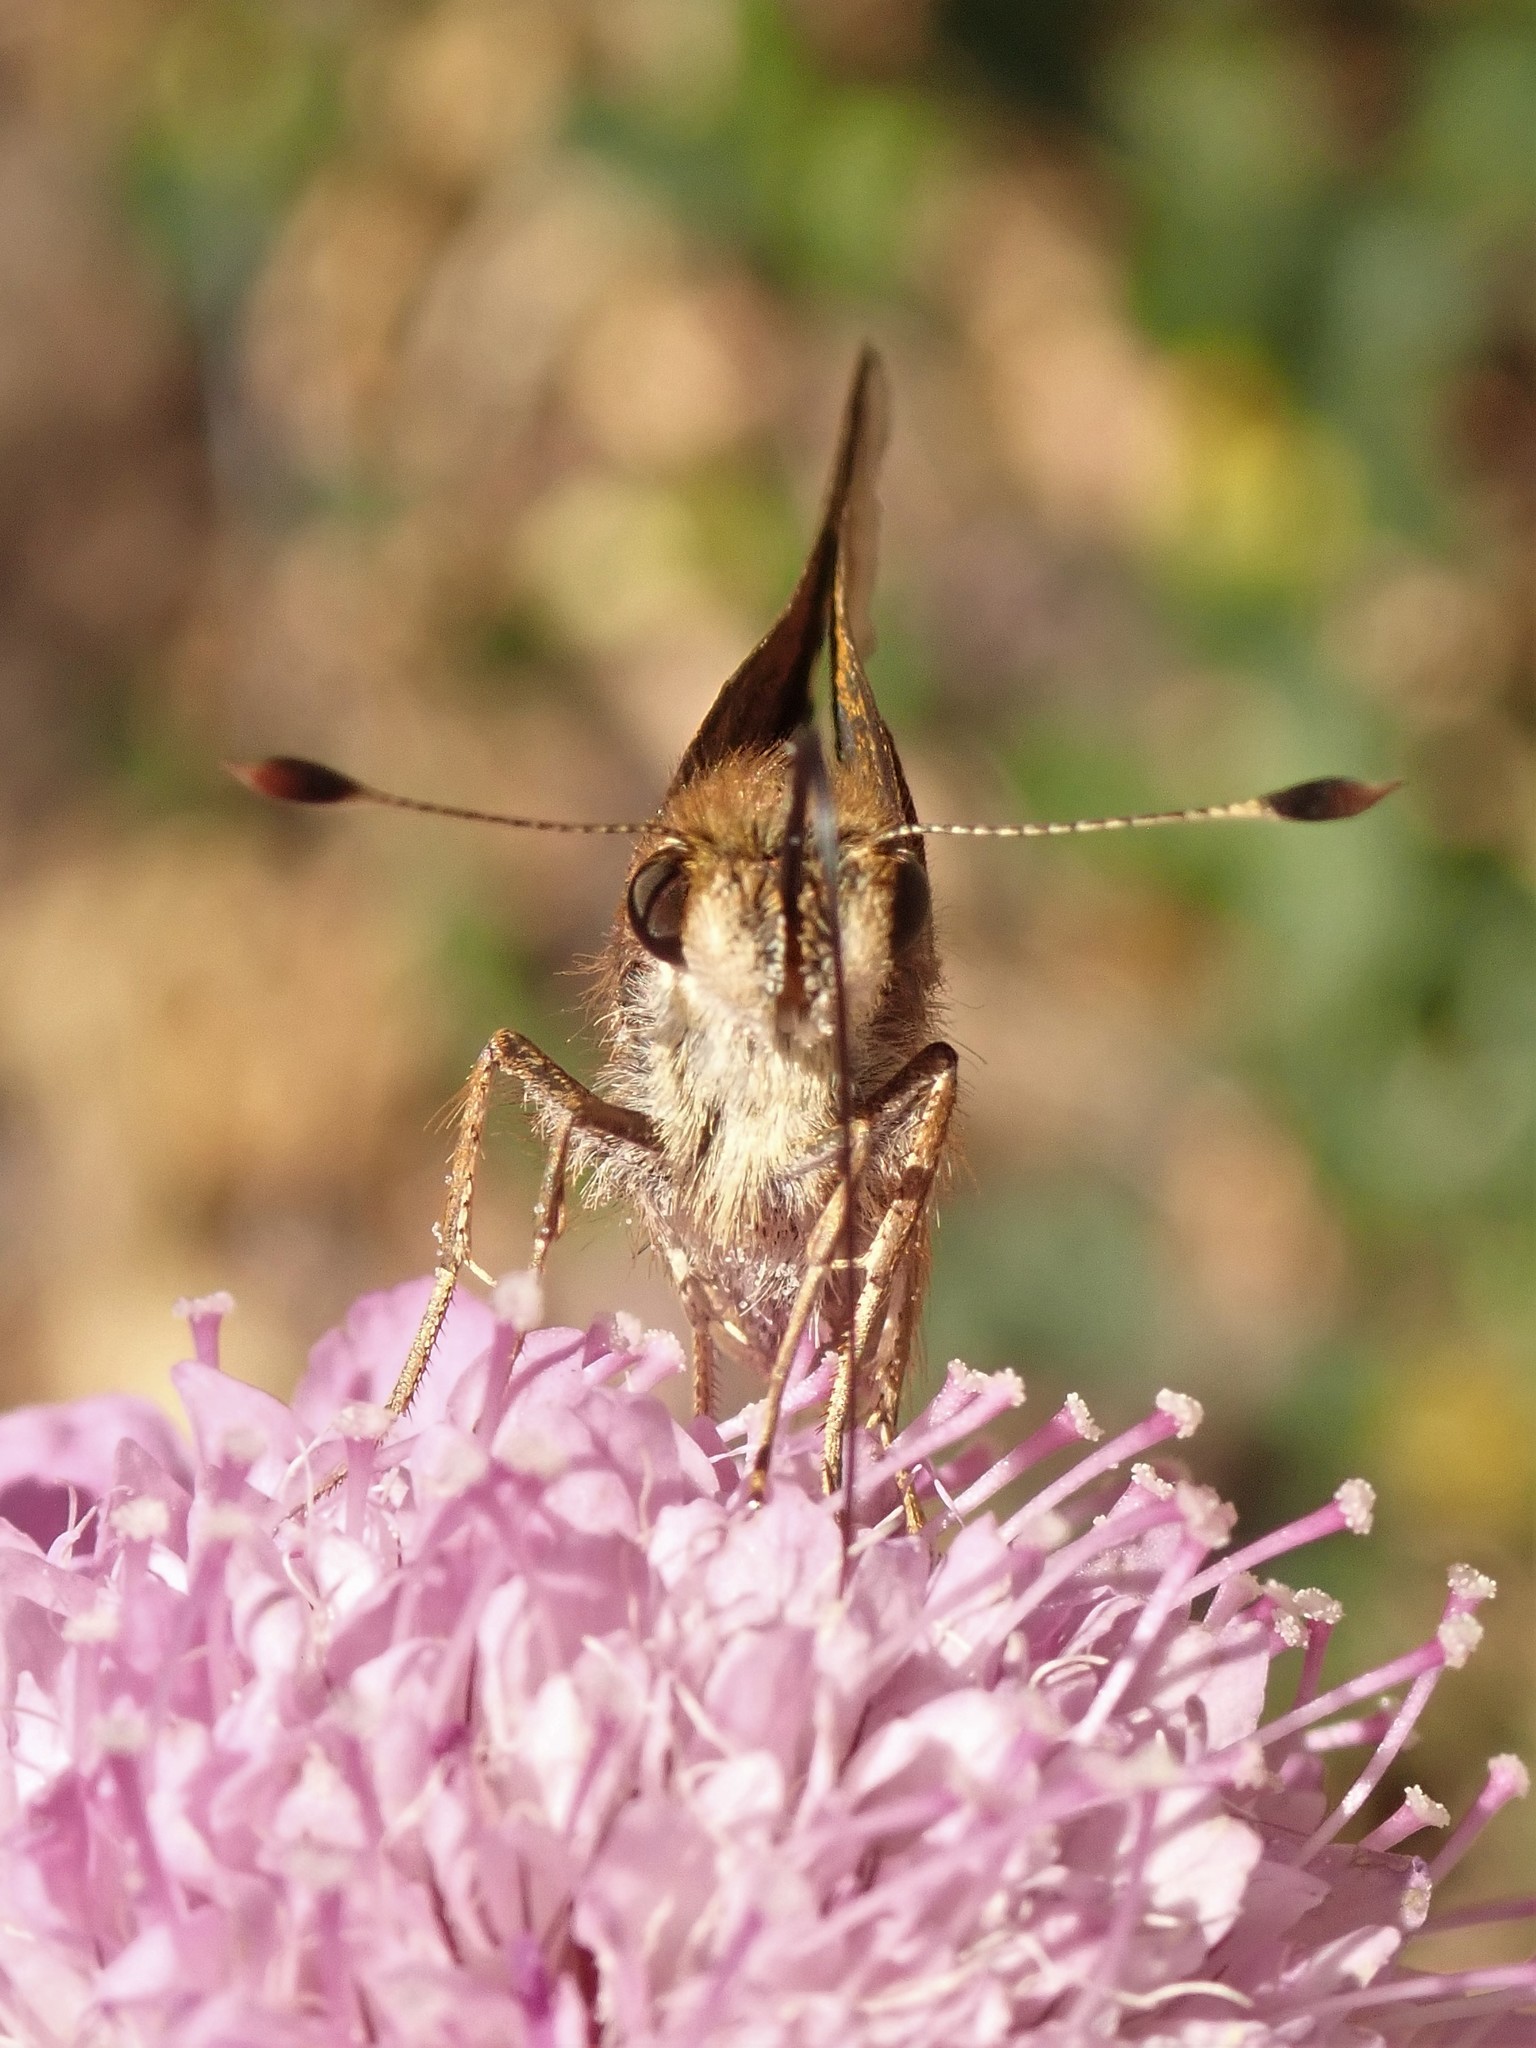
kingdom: Animalia
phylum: Arthropoda
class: Insecta
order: Lepidoptera
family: Hesperiidae
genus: Lon
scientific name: Lon melane
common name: Umber skipper
